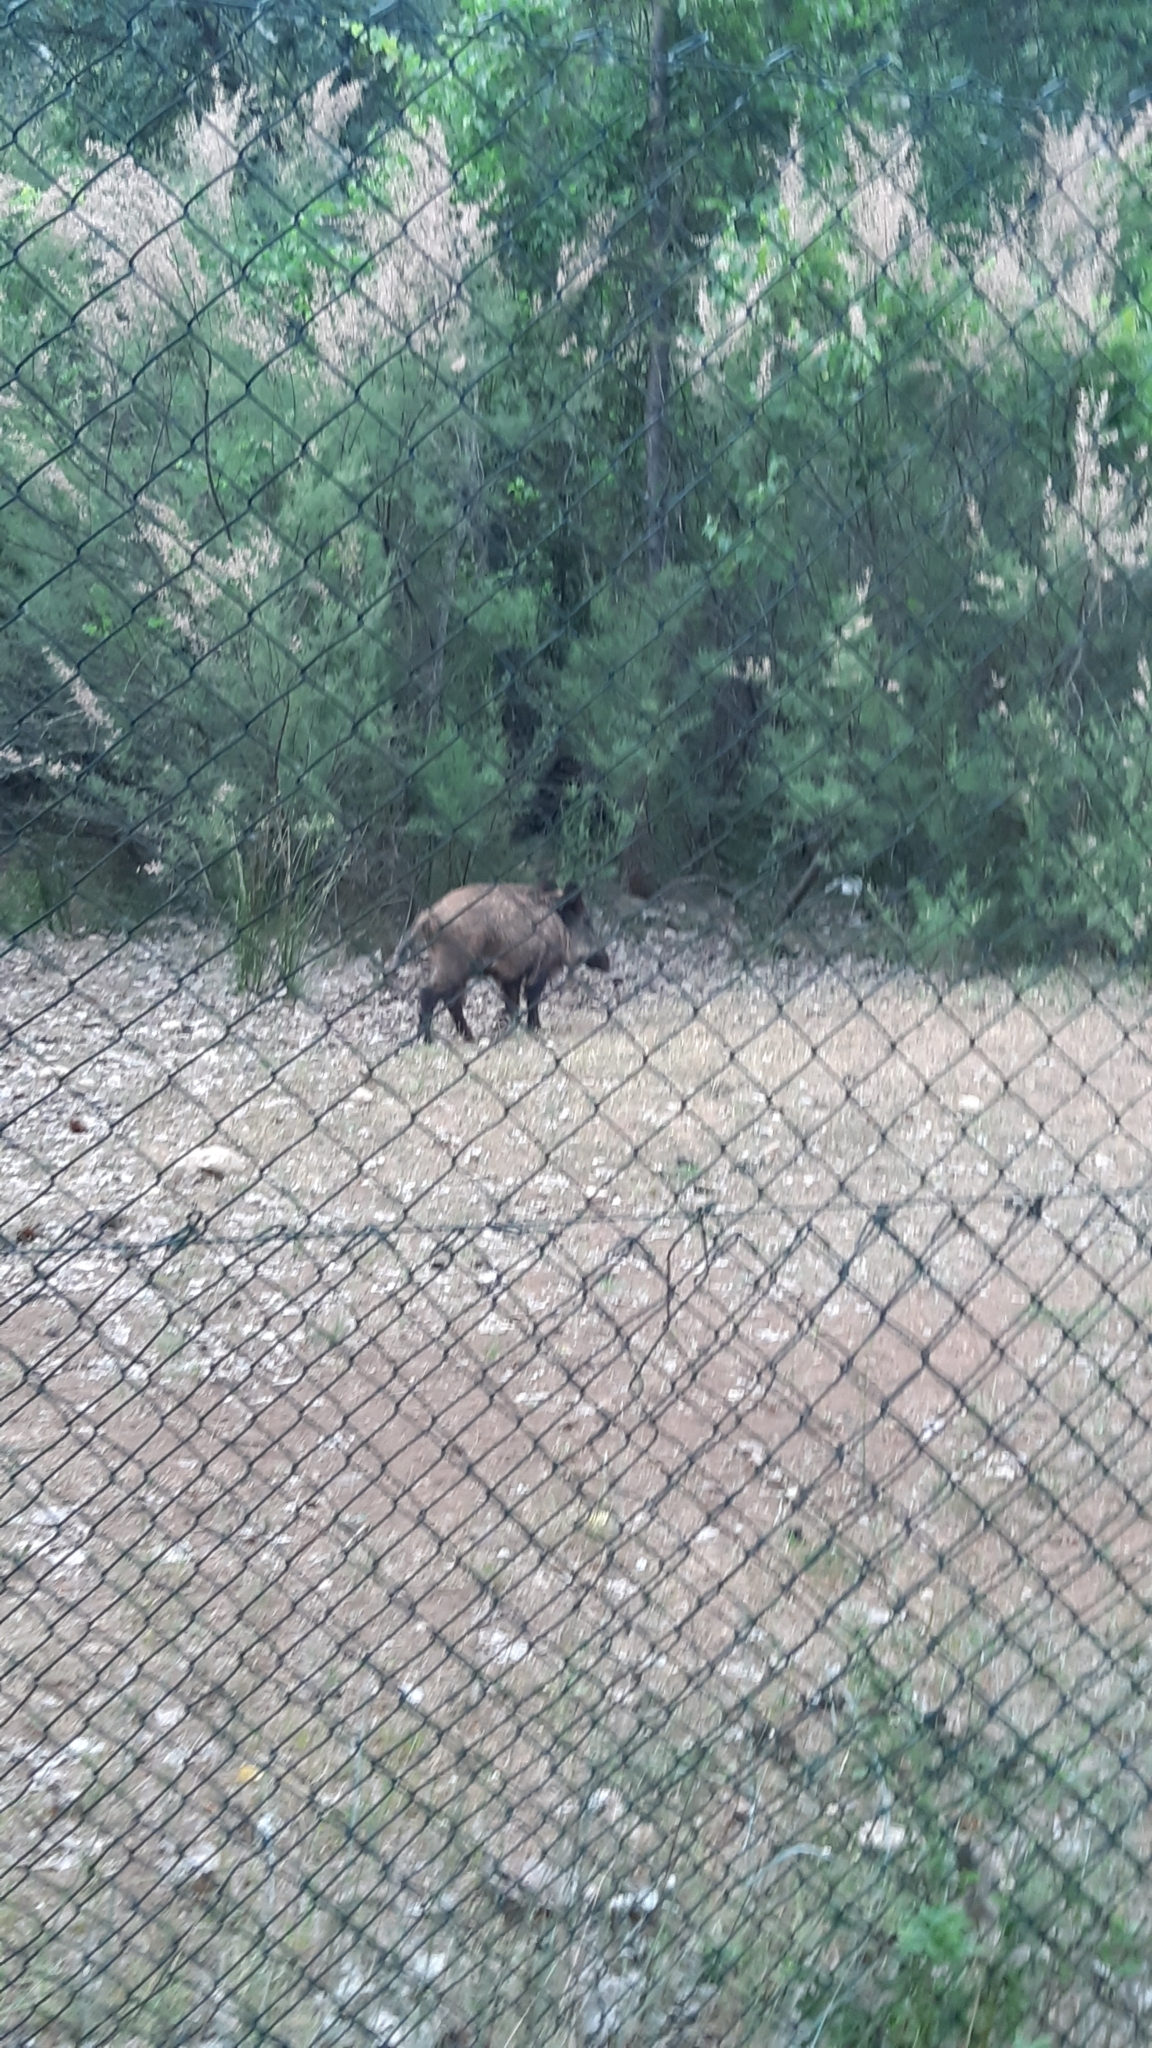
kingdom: Animalia
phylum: Chordata
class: Mammalia
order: Artiodactyla
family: Suidae
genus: Sus
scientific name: Sus scrofa
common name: Wild boar
